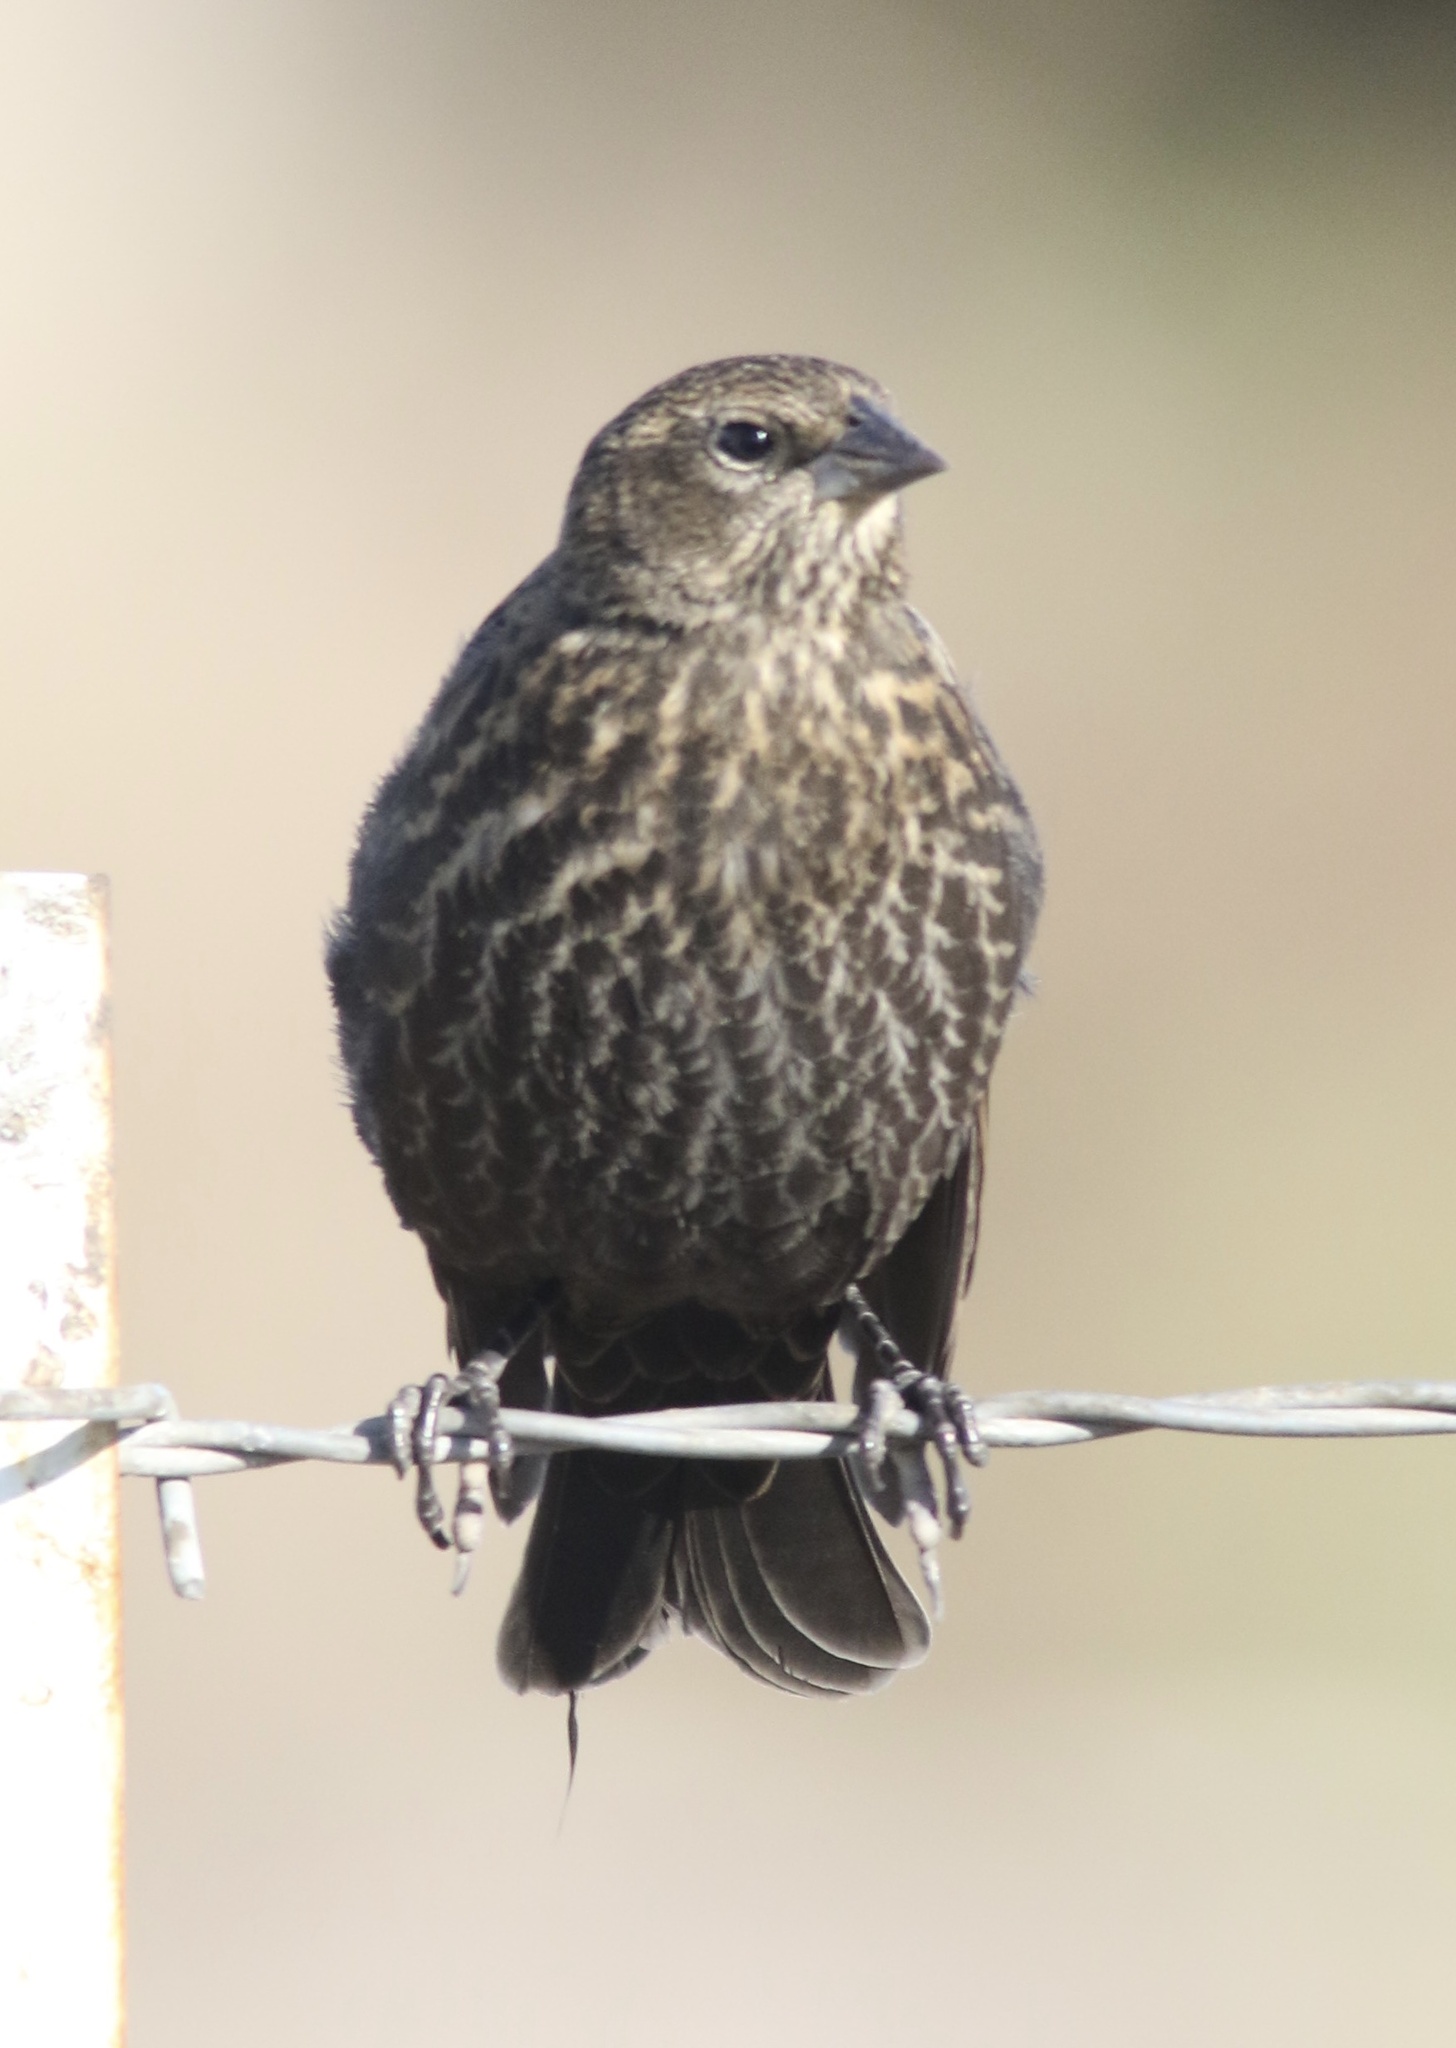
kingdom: Animalia
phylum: Chordata
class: Aves
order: Passeriformes
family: Icteridae
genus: Agelaius
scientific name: Agelaius phoeniceus
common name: Red-winged blackbird
